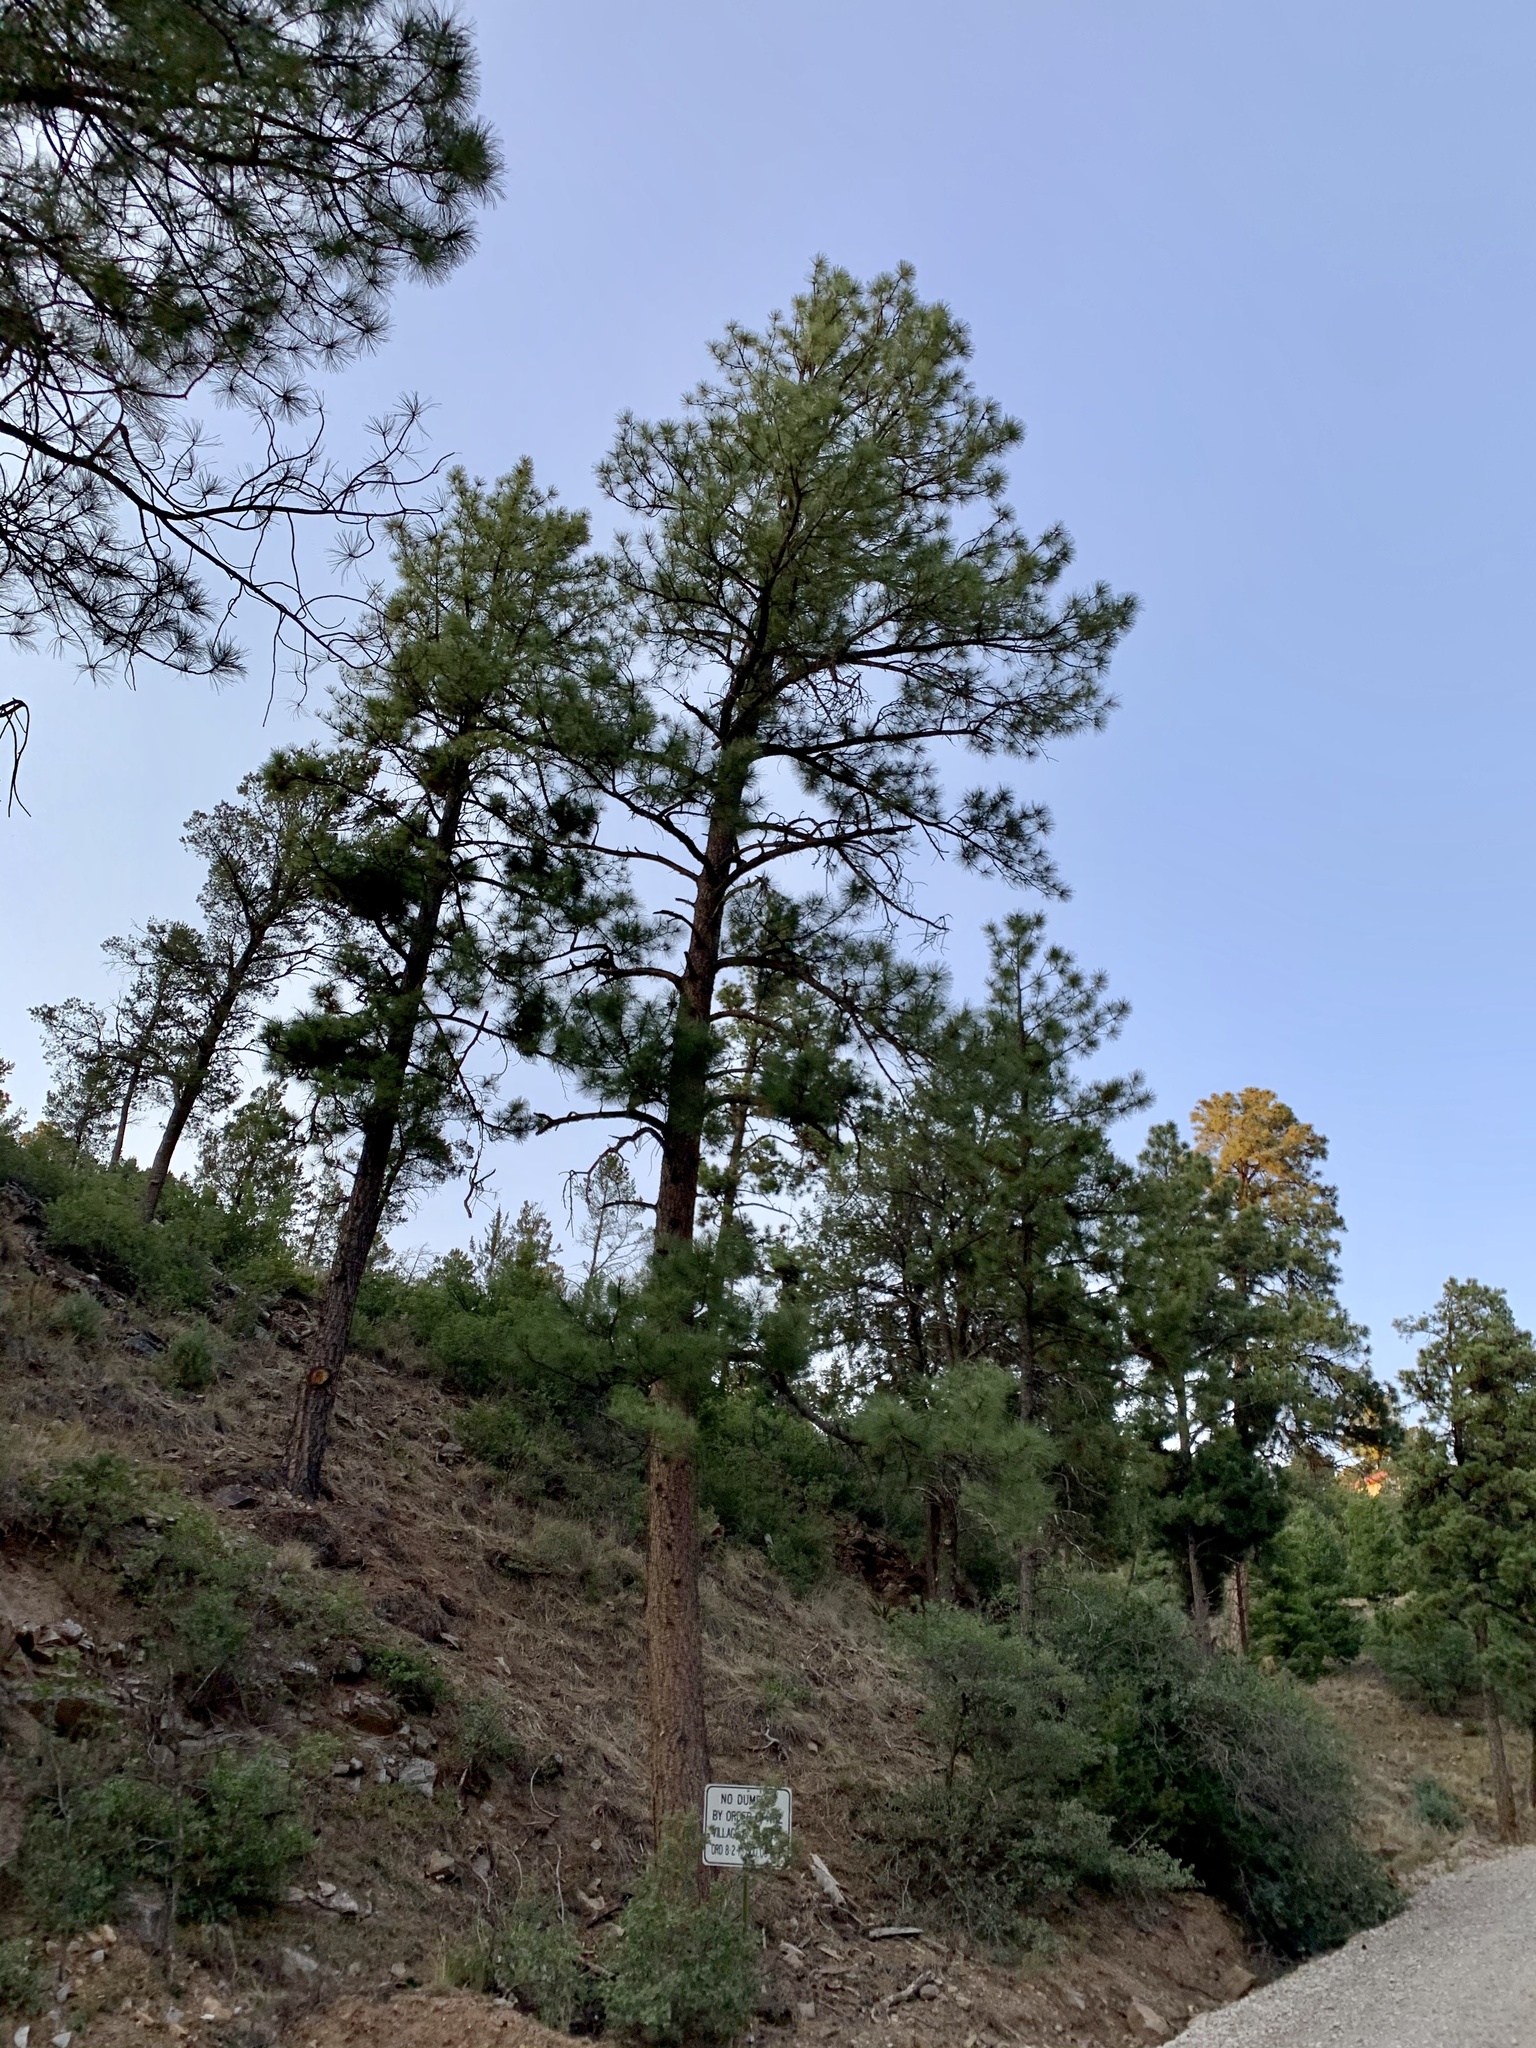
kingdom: Plantae
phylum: Tracheophyta
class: Pinopsida
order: Pinales
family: Pinaceae
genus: Pinus
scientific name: Pinus ponderosa
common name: Western yellow-pine
